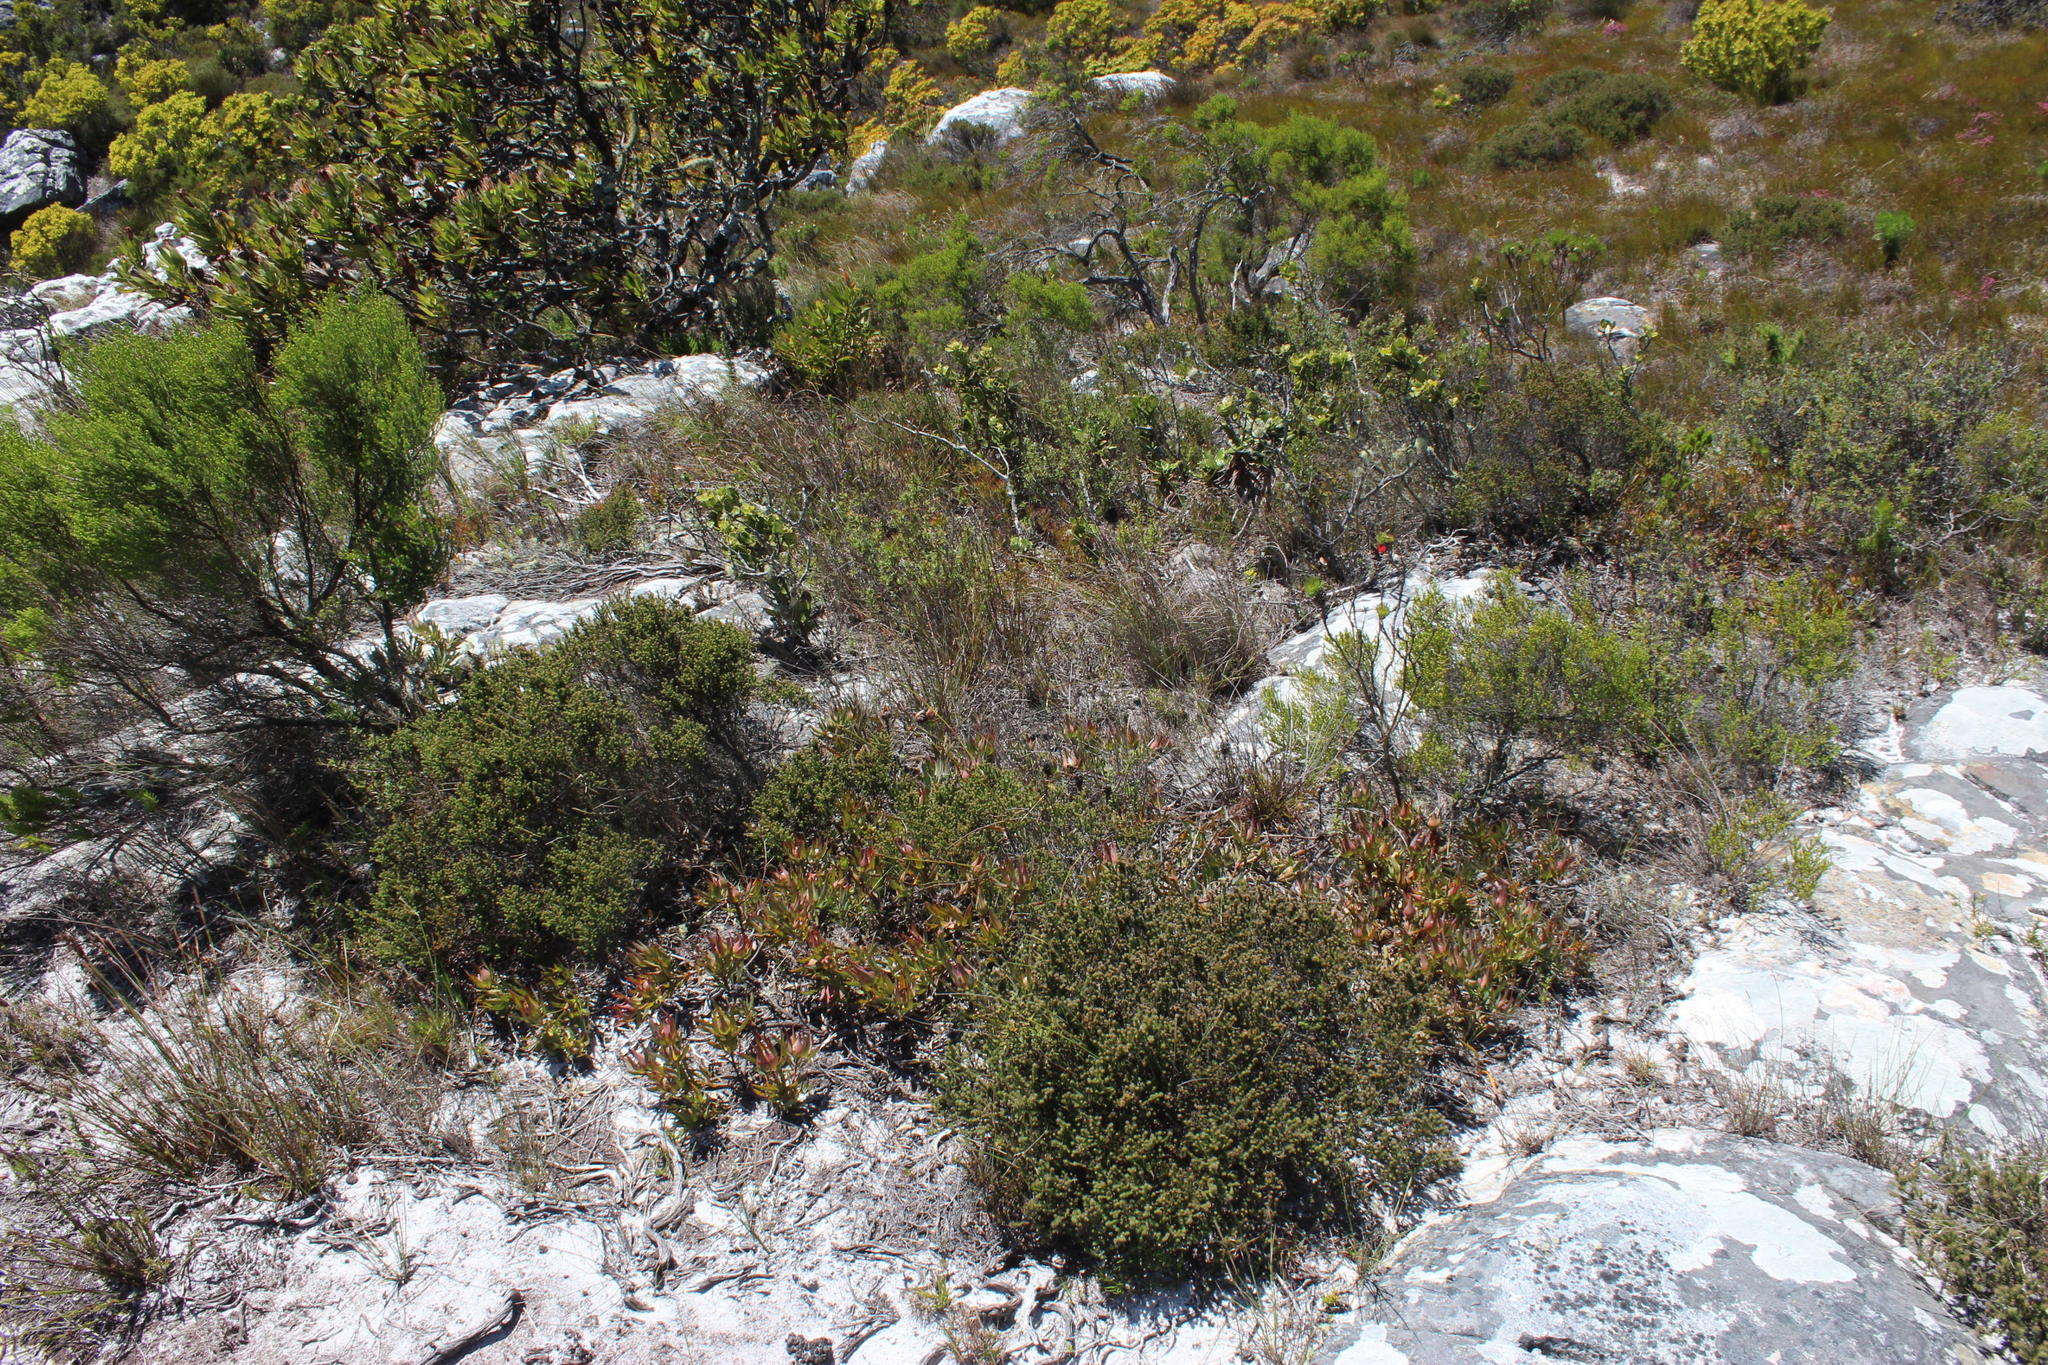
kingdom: Plantae
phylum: Tracheophyta
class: Magnoliopsida
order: Proteales
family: Proteaceae
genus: Leucadendron
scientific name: Leucadendron salignum
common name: Common sunshine conebush
